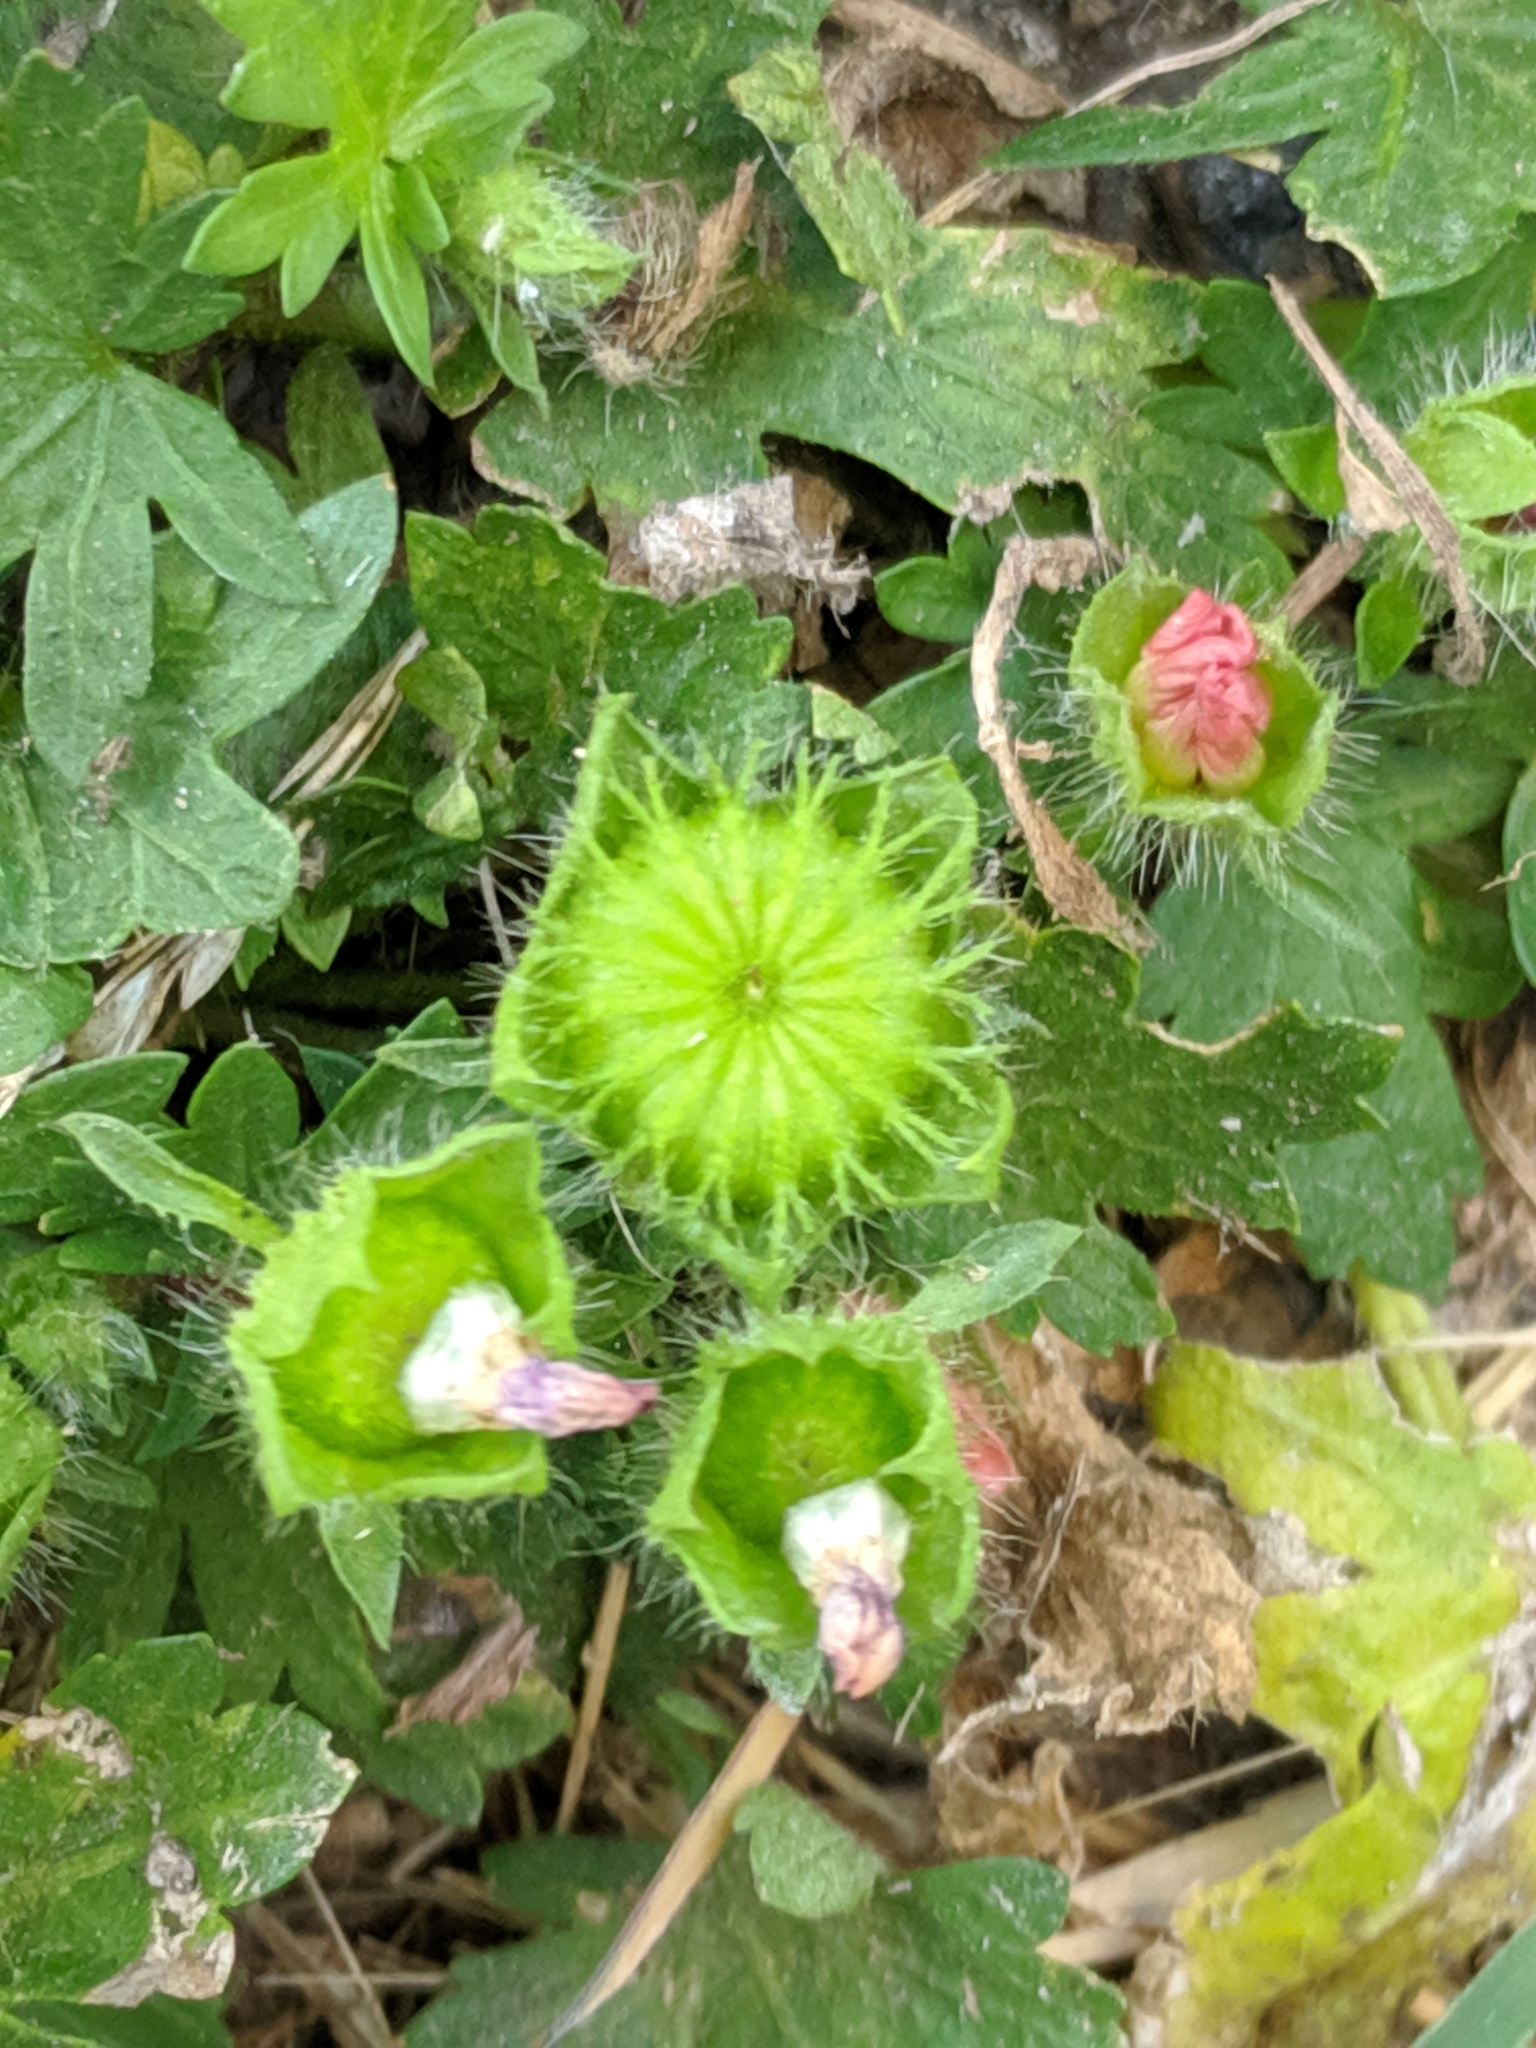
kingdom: Plantae
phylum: Tracheophyta
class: Magnoliopsida
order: Malvales
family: Malvaceae
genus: Modiola
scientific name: Modiola caroliniana
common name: Carolina bristlemallow
